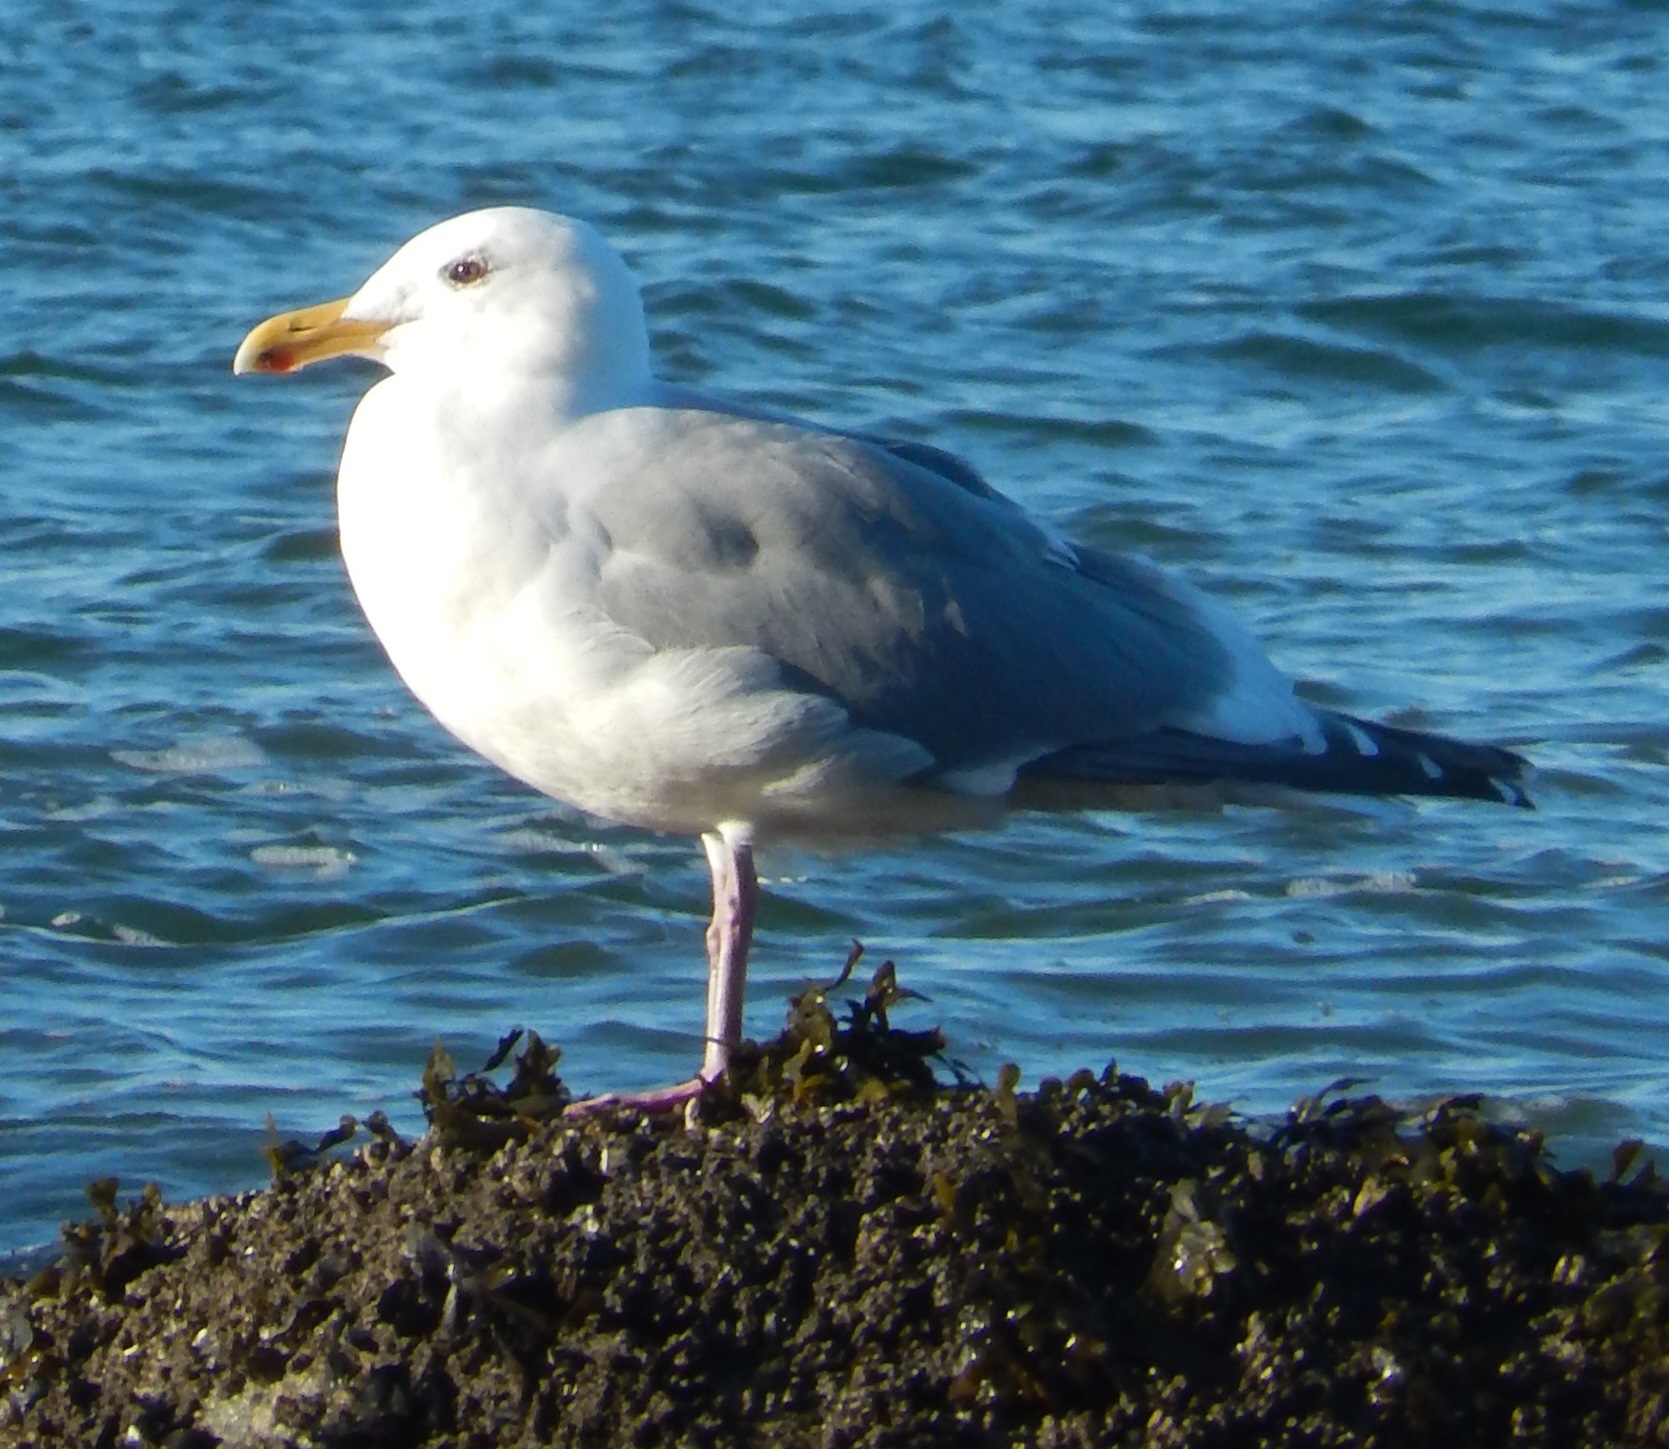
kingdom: Animalia
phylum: Chordata
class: Aves
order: Charadriiformes
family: Laridae
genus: Larus
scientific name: Larus
